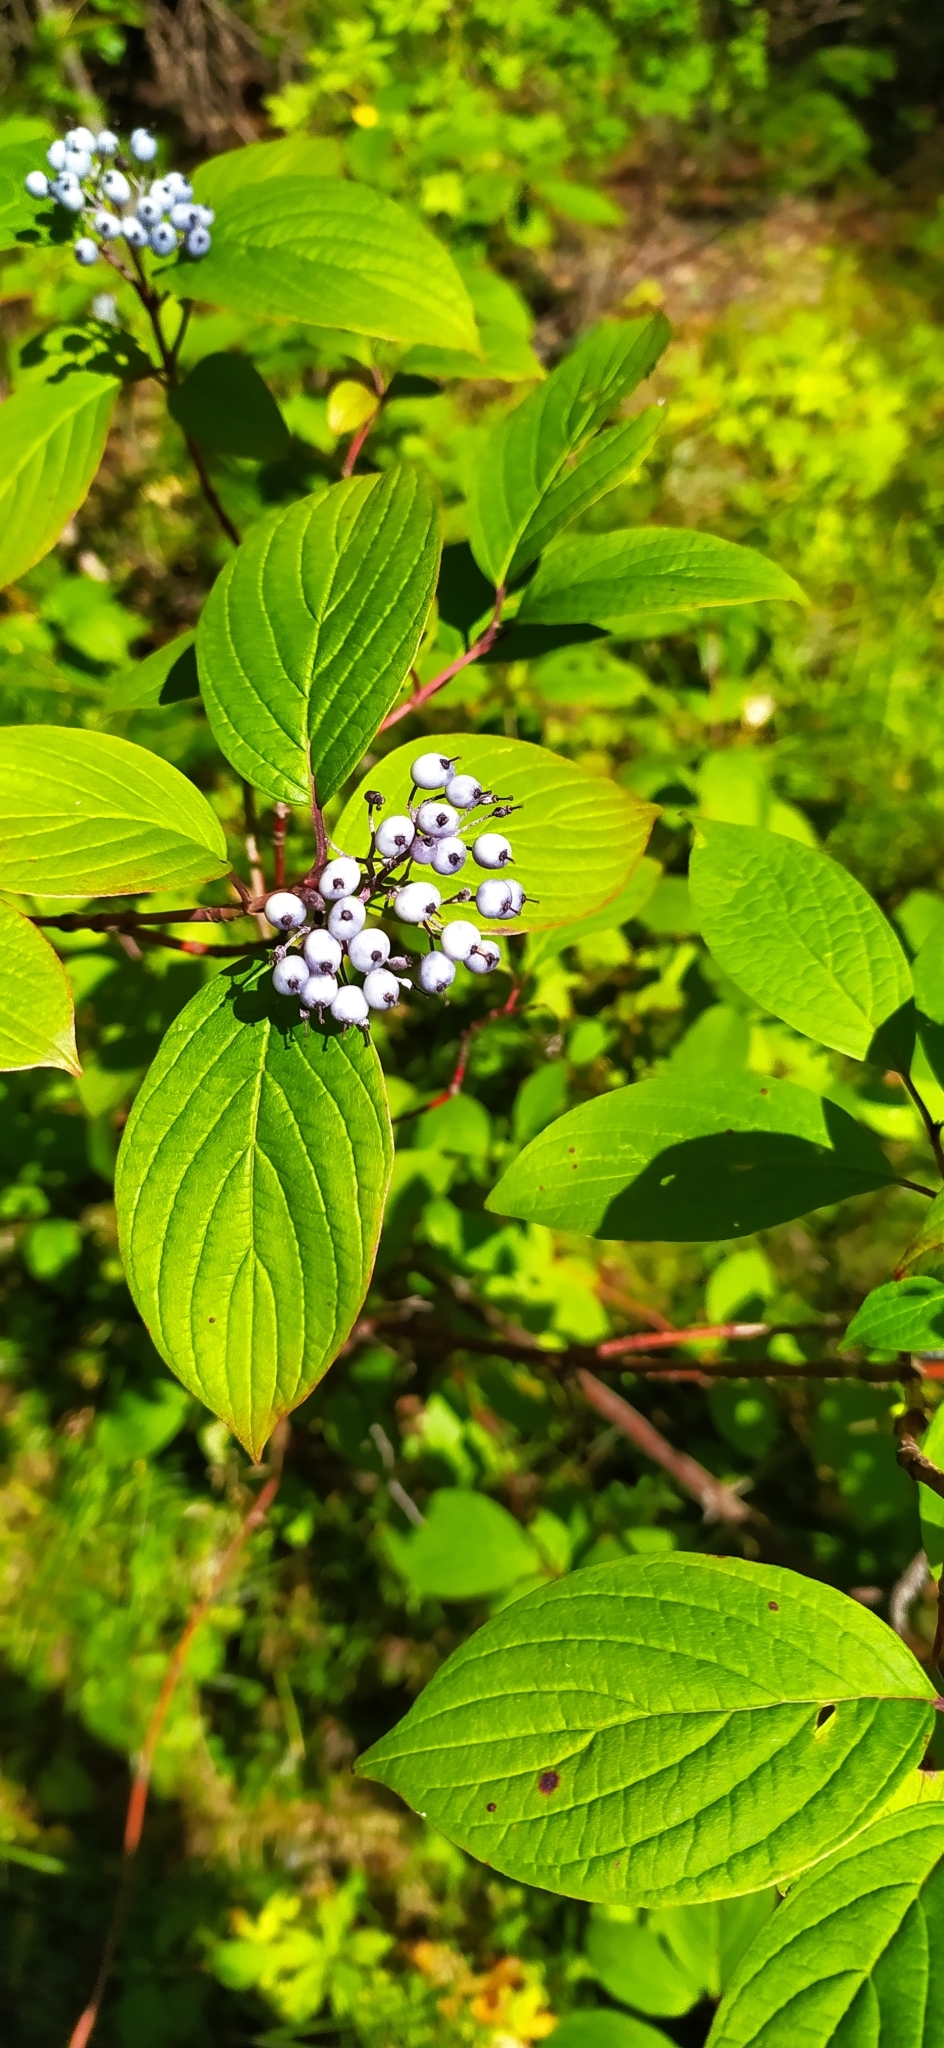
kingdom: Plantae
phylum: Tracheophyta
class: Magnoliopsida
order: Cornales
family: Cornaceae
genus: Cornus
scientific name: Cornus alba
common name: White dogwood
